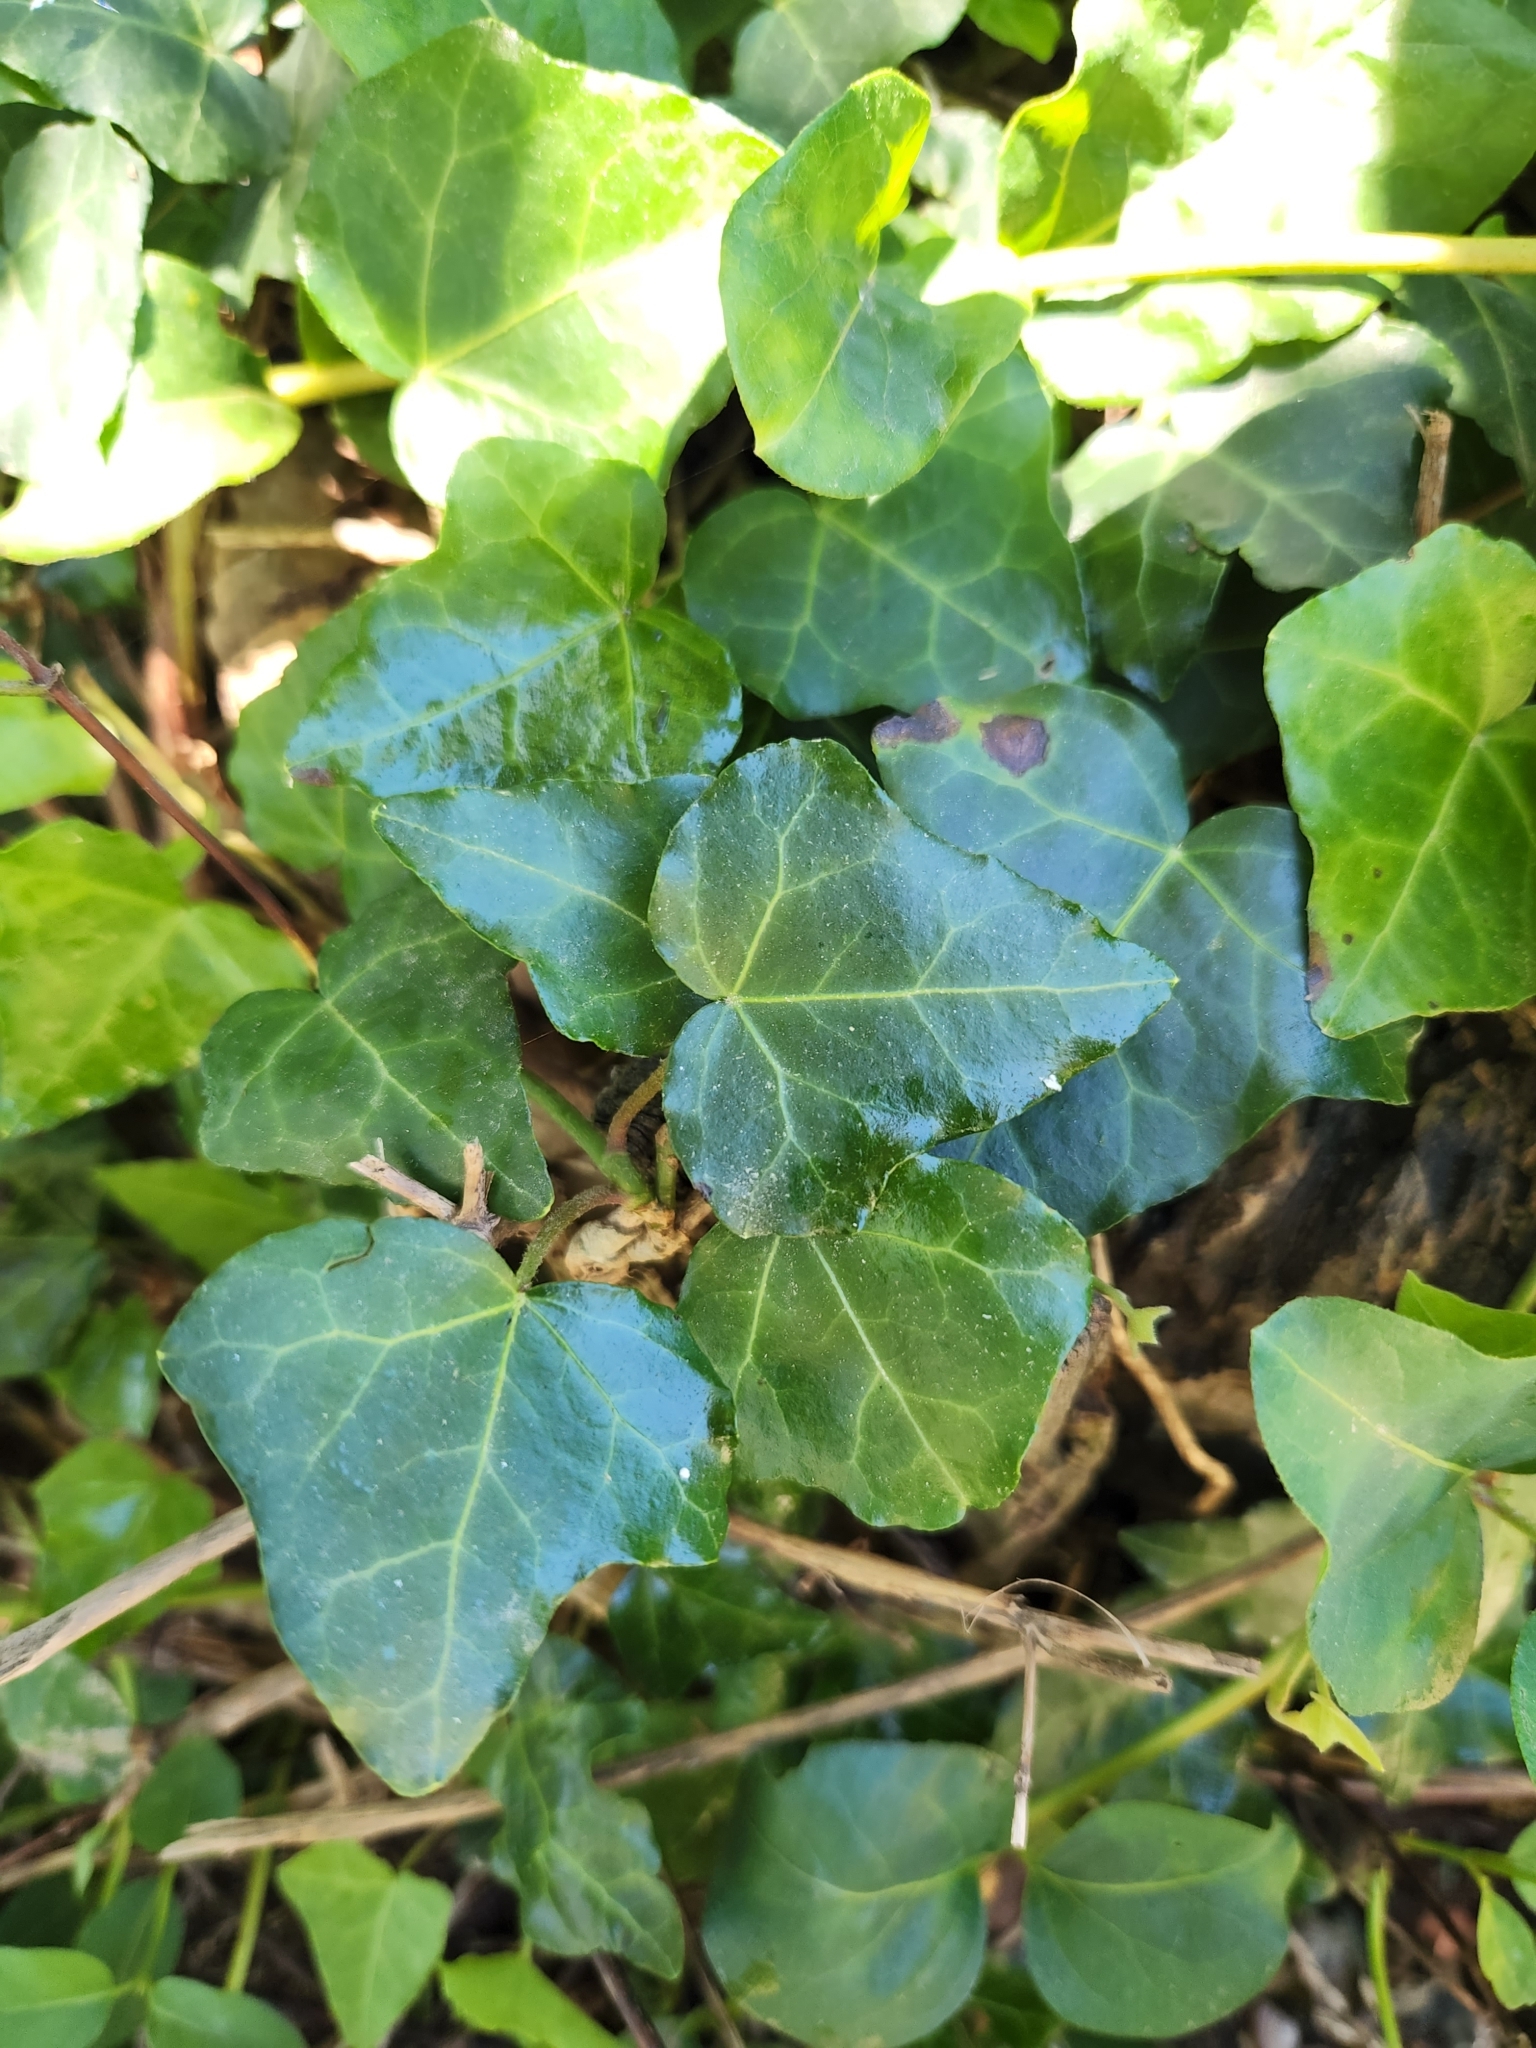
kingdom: Plantae
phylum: Tracheophyta
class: Magnoliopsida
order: Apiales
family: Araliaceae
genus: Hedera
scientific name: Hedera helix
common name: Ivy
